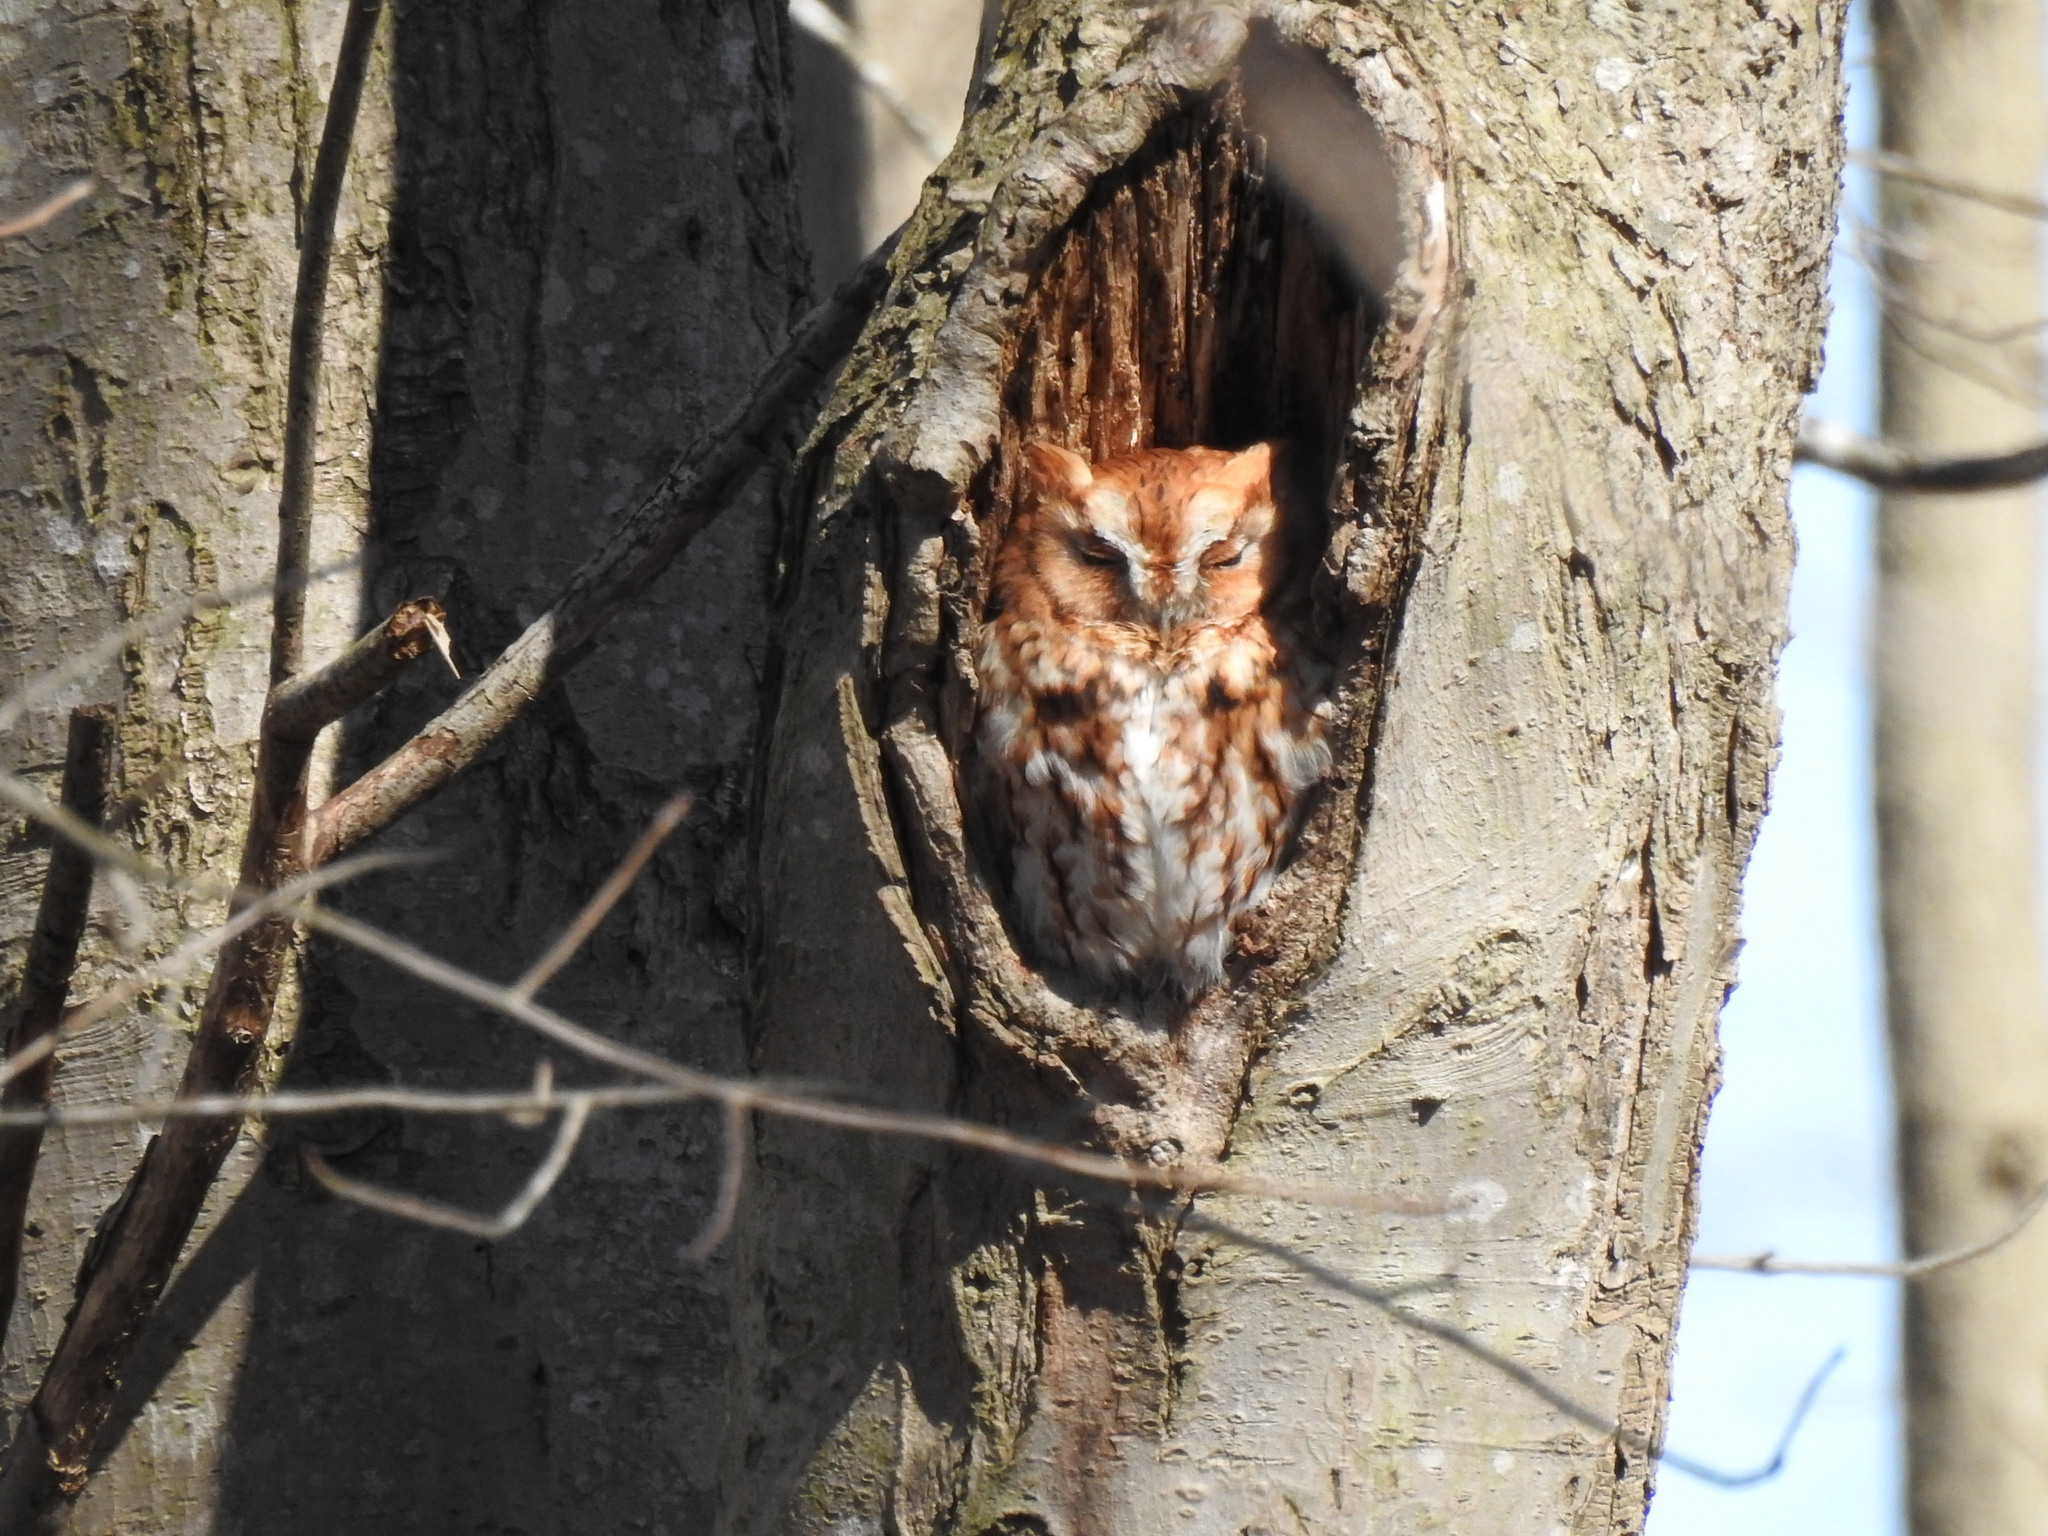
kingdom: Animalia
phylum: Chordata
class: Aves
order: Strigiformes
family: Strigidae
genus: Megascops
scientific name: Megascops asio
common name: Eastern screech-owl
